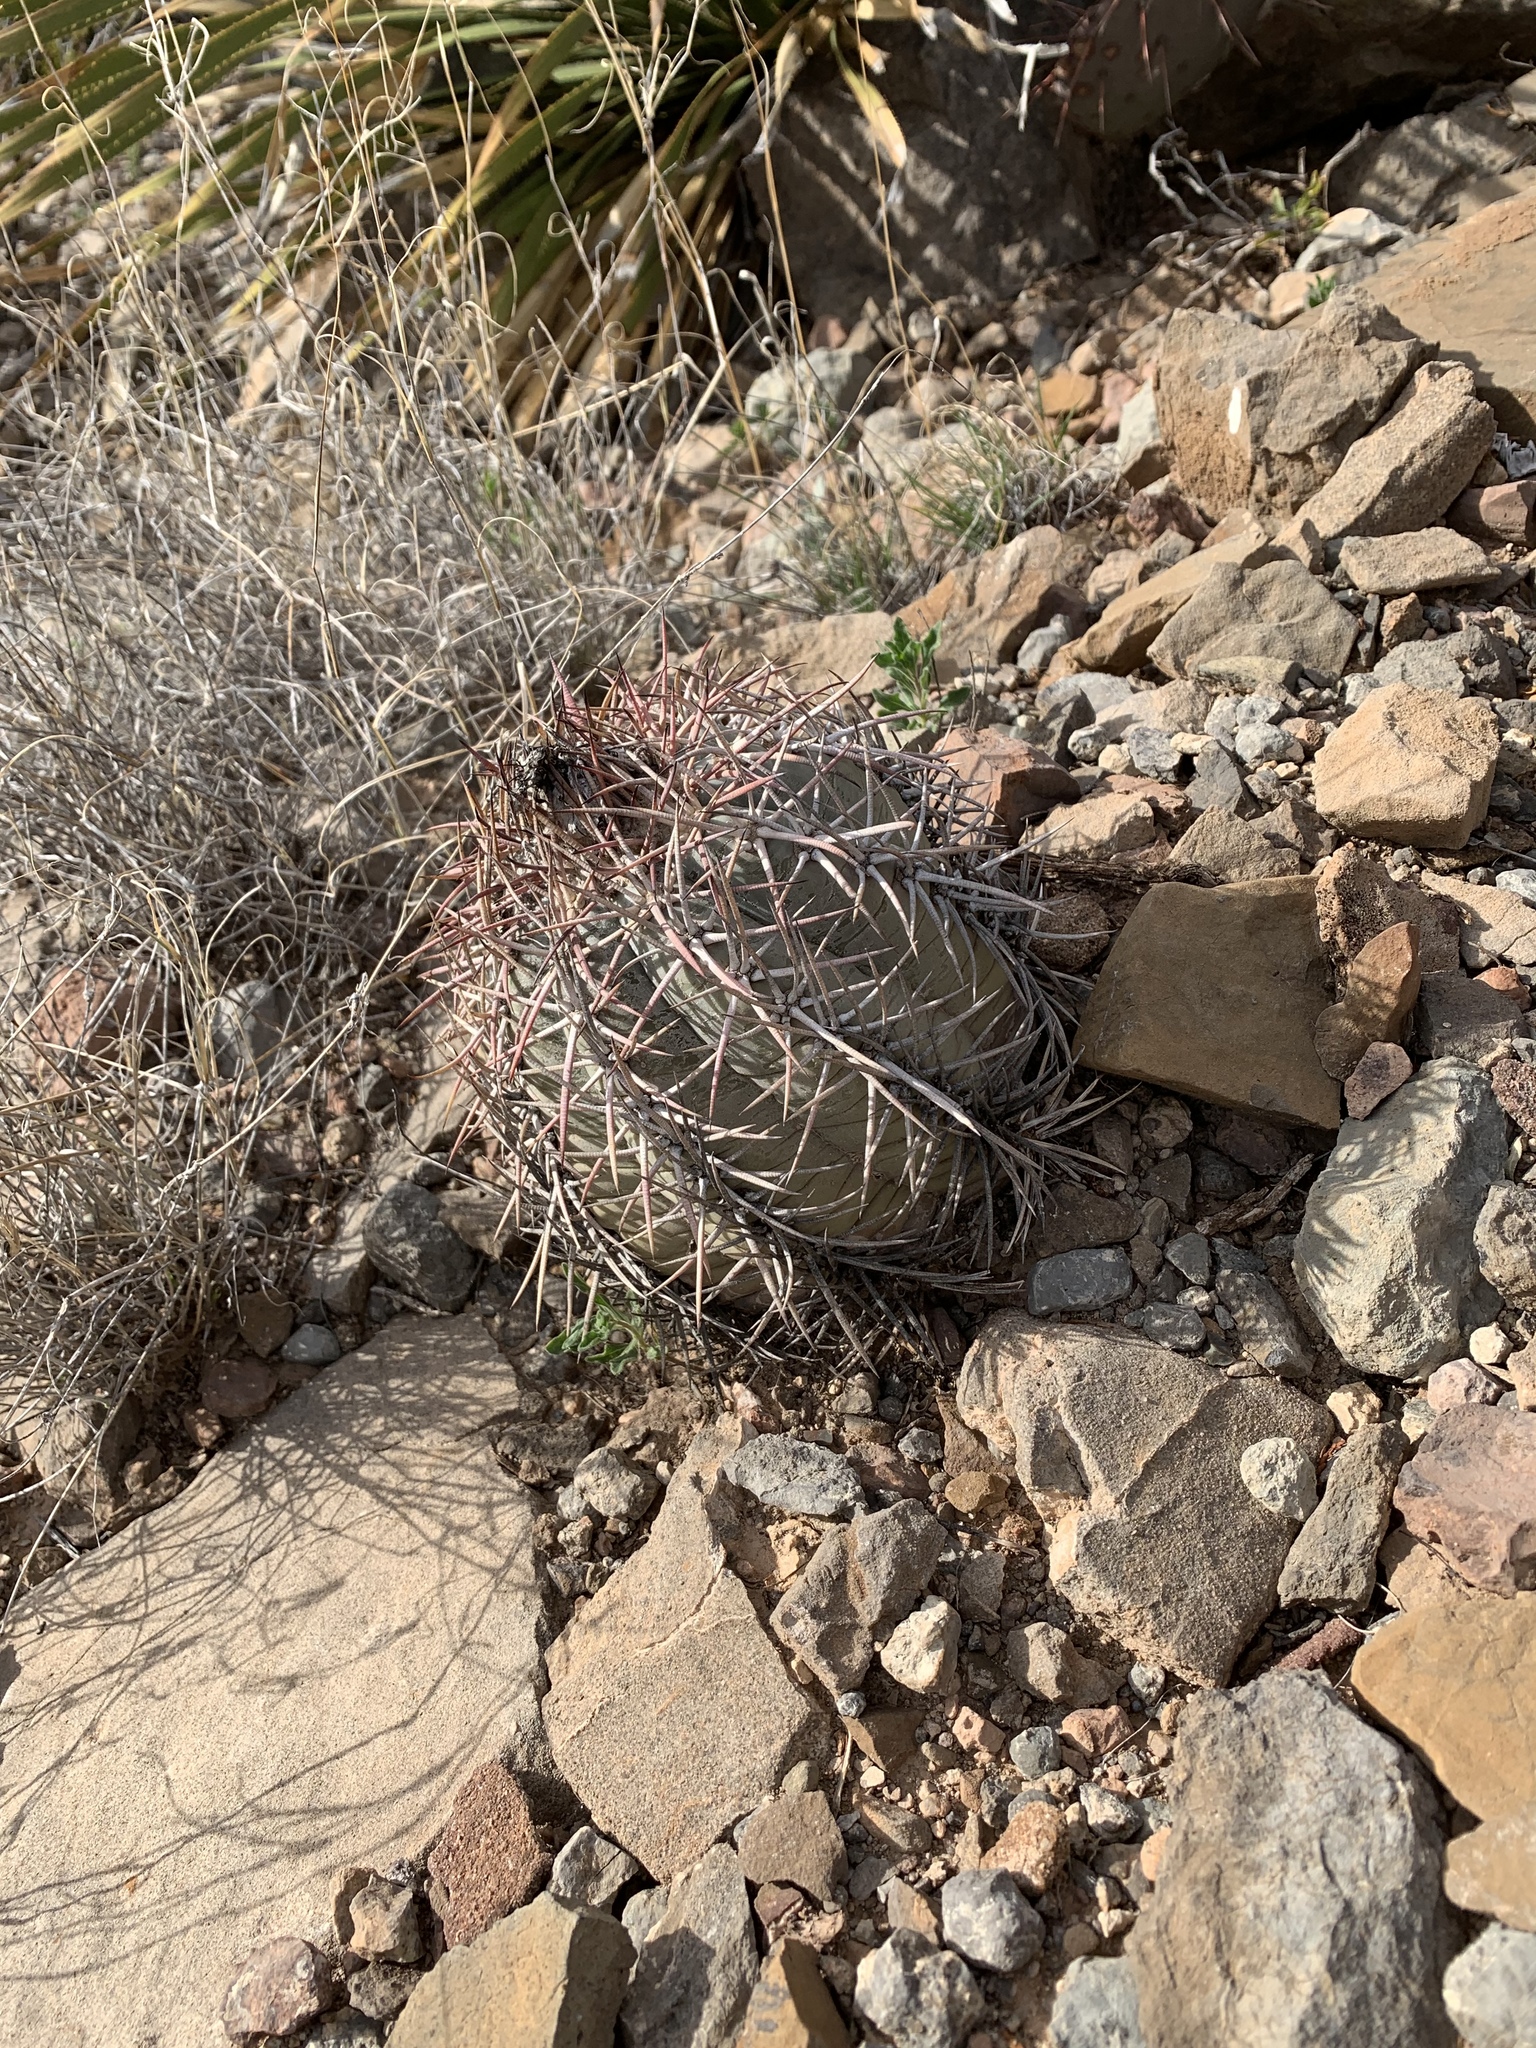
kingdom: Plantae
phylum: Tracheophyta
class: Magnoliopsida
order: Caryophyllales
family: Cactaceae
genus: Echinocactus
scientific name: Echinocactus horizonthalonius
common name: Devilshead
